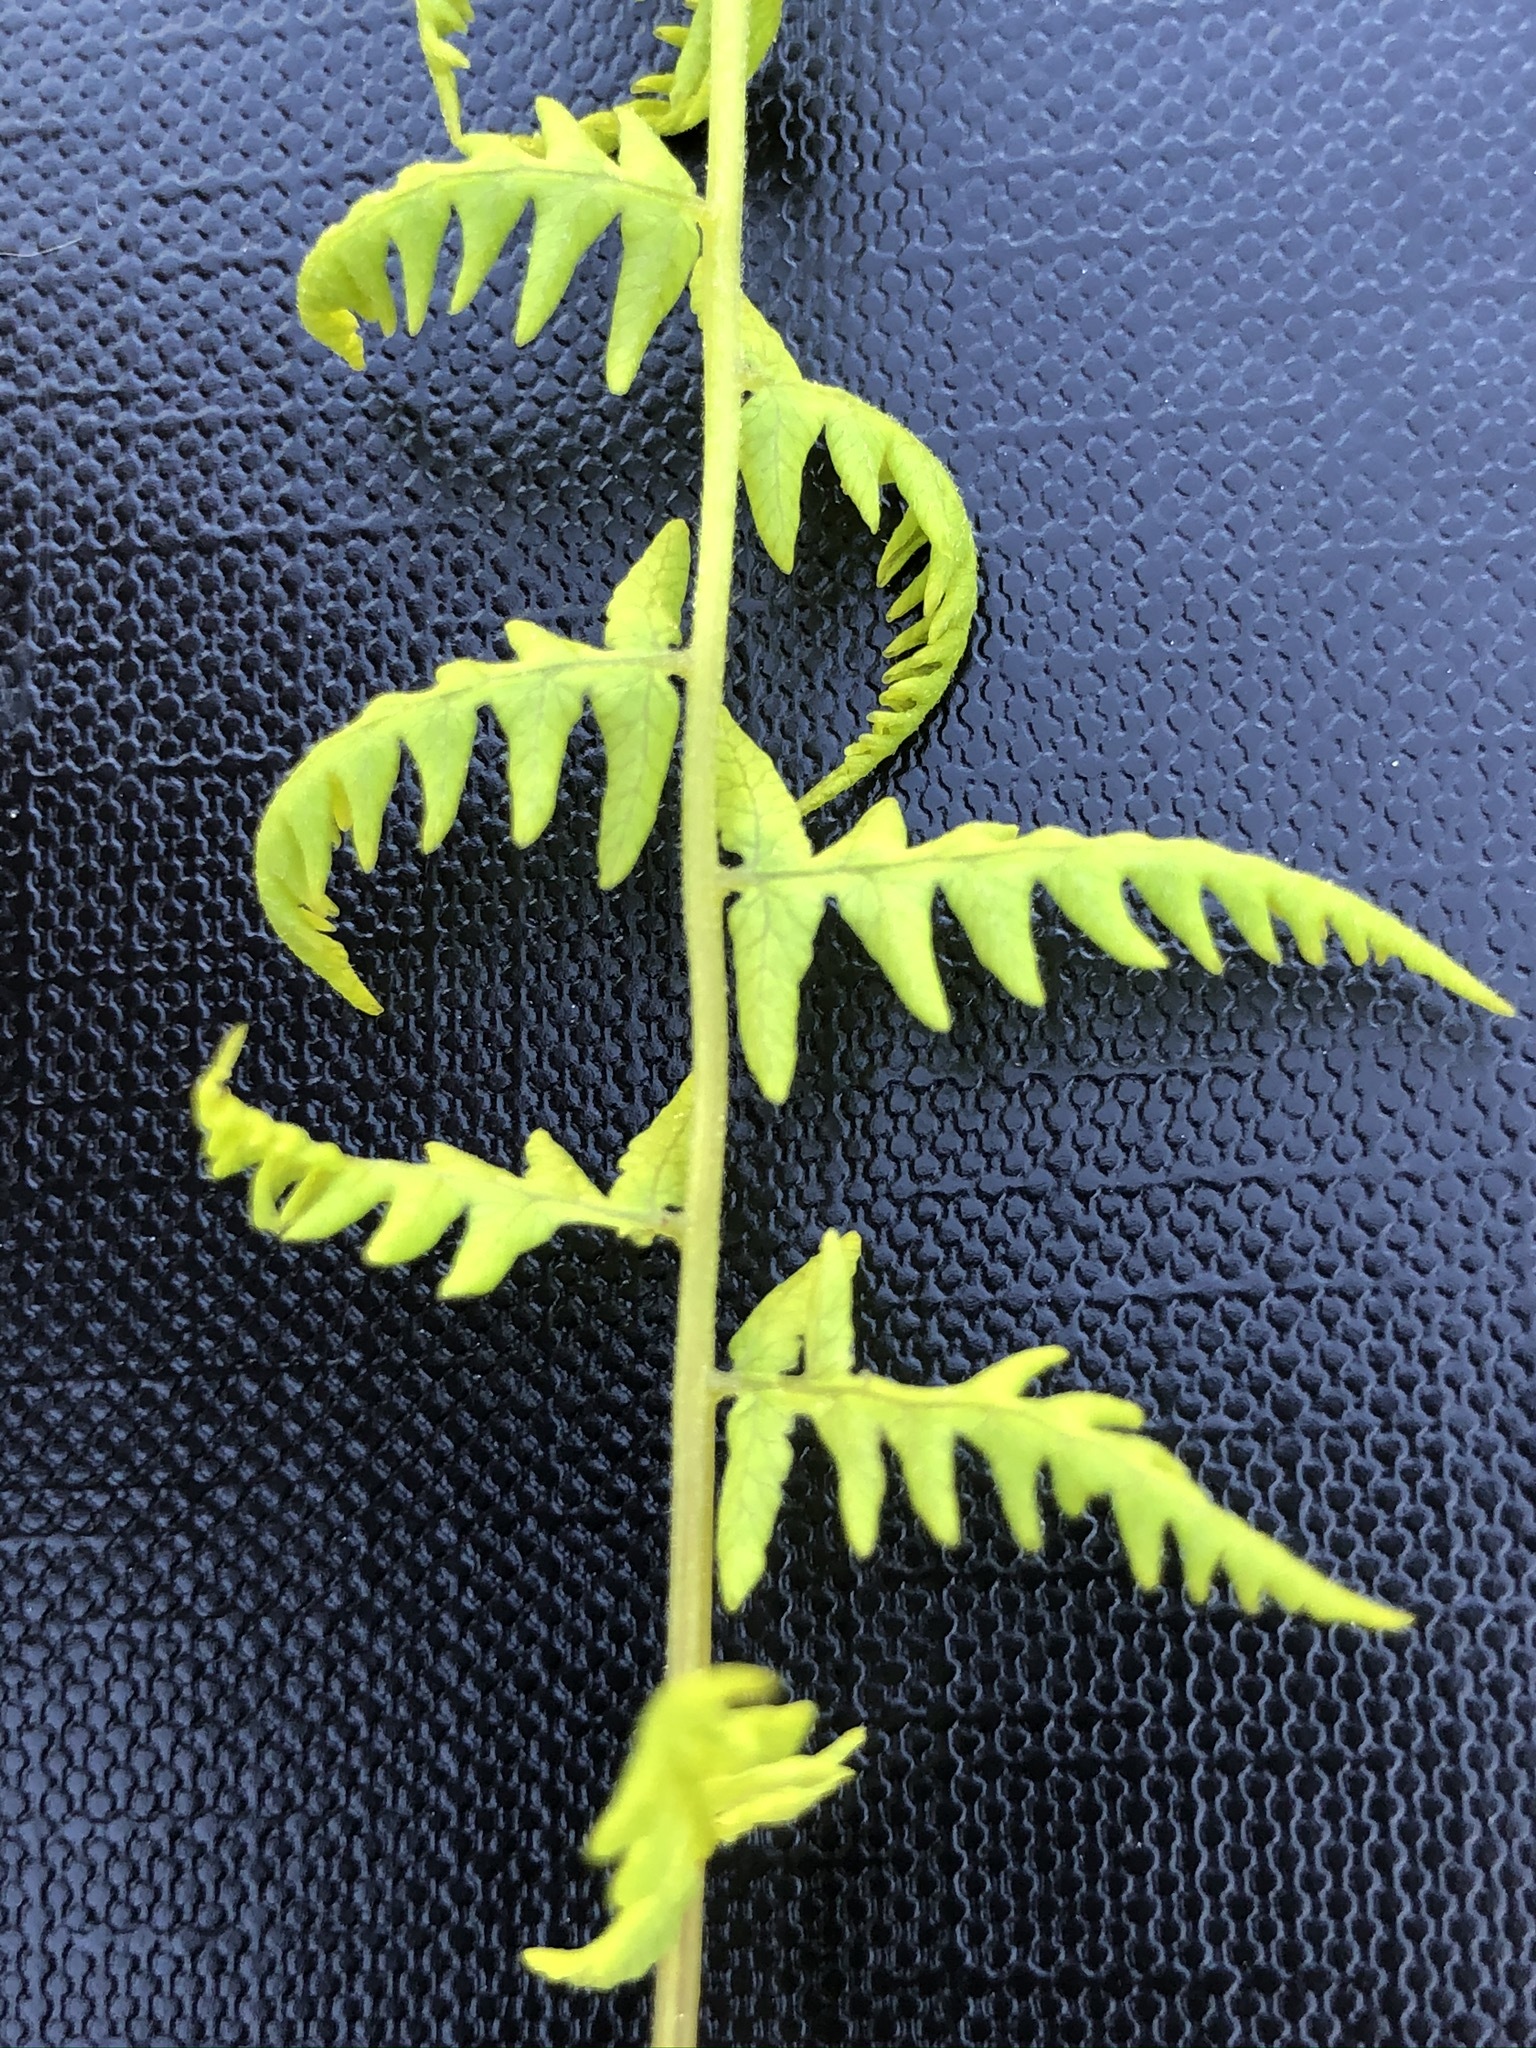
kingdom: Plantae
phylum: Tracheophyta
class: Polypodiopsida
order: Polypodiales
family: Thelypteridaceae
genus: Thelypteris
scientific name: Thelypteris palustris
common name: Marsh fern
